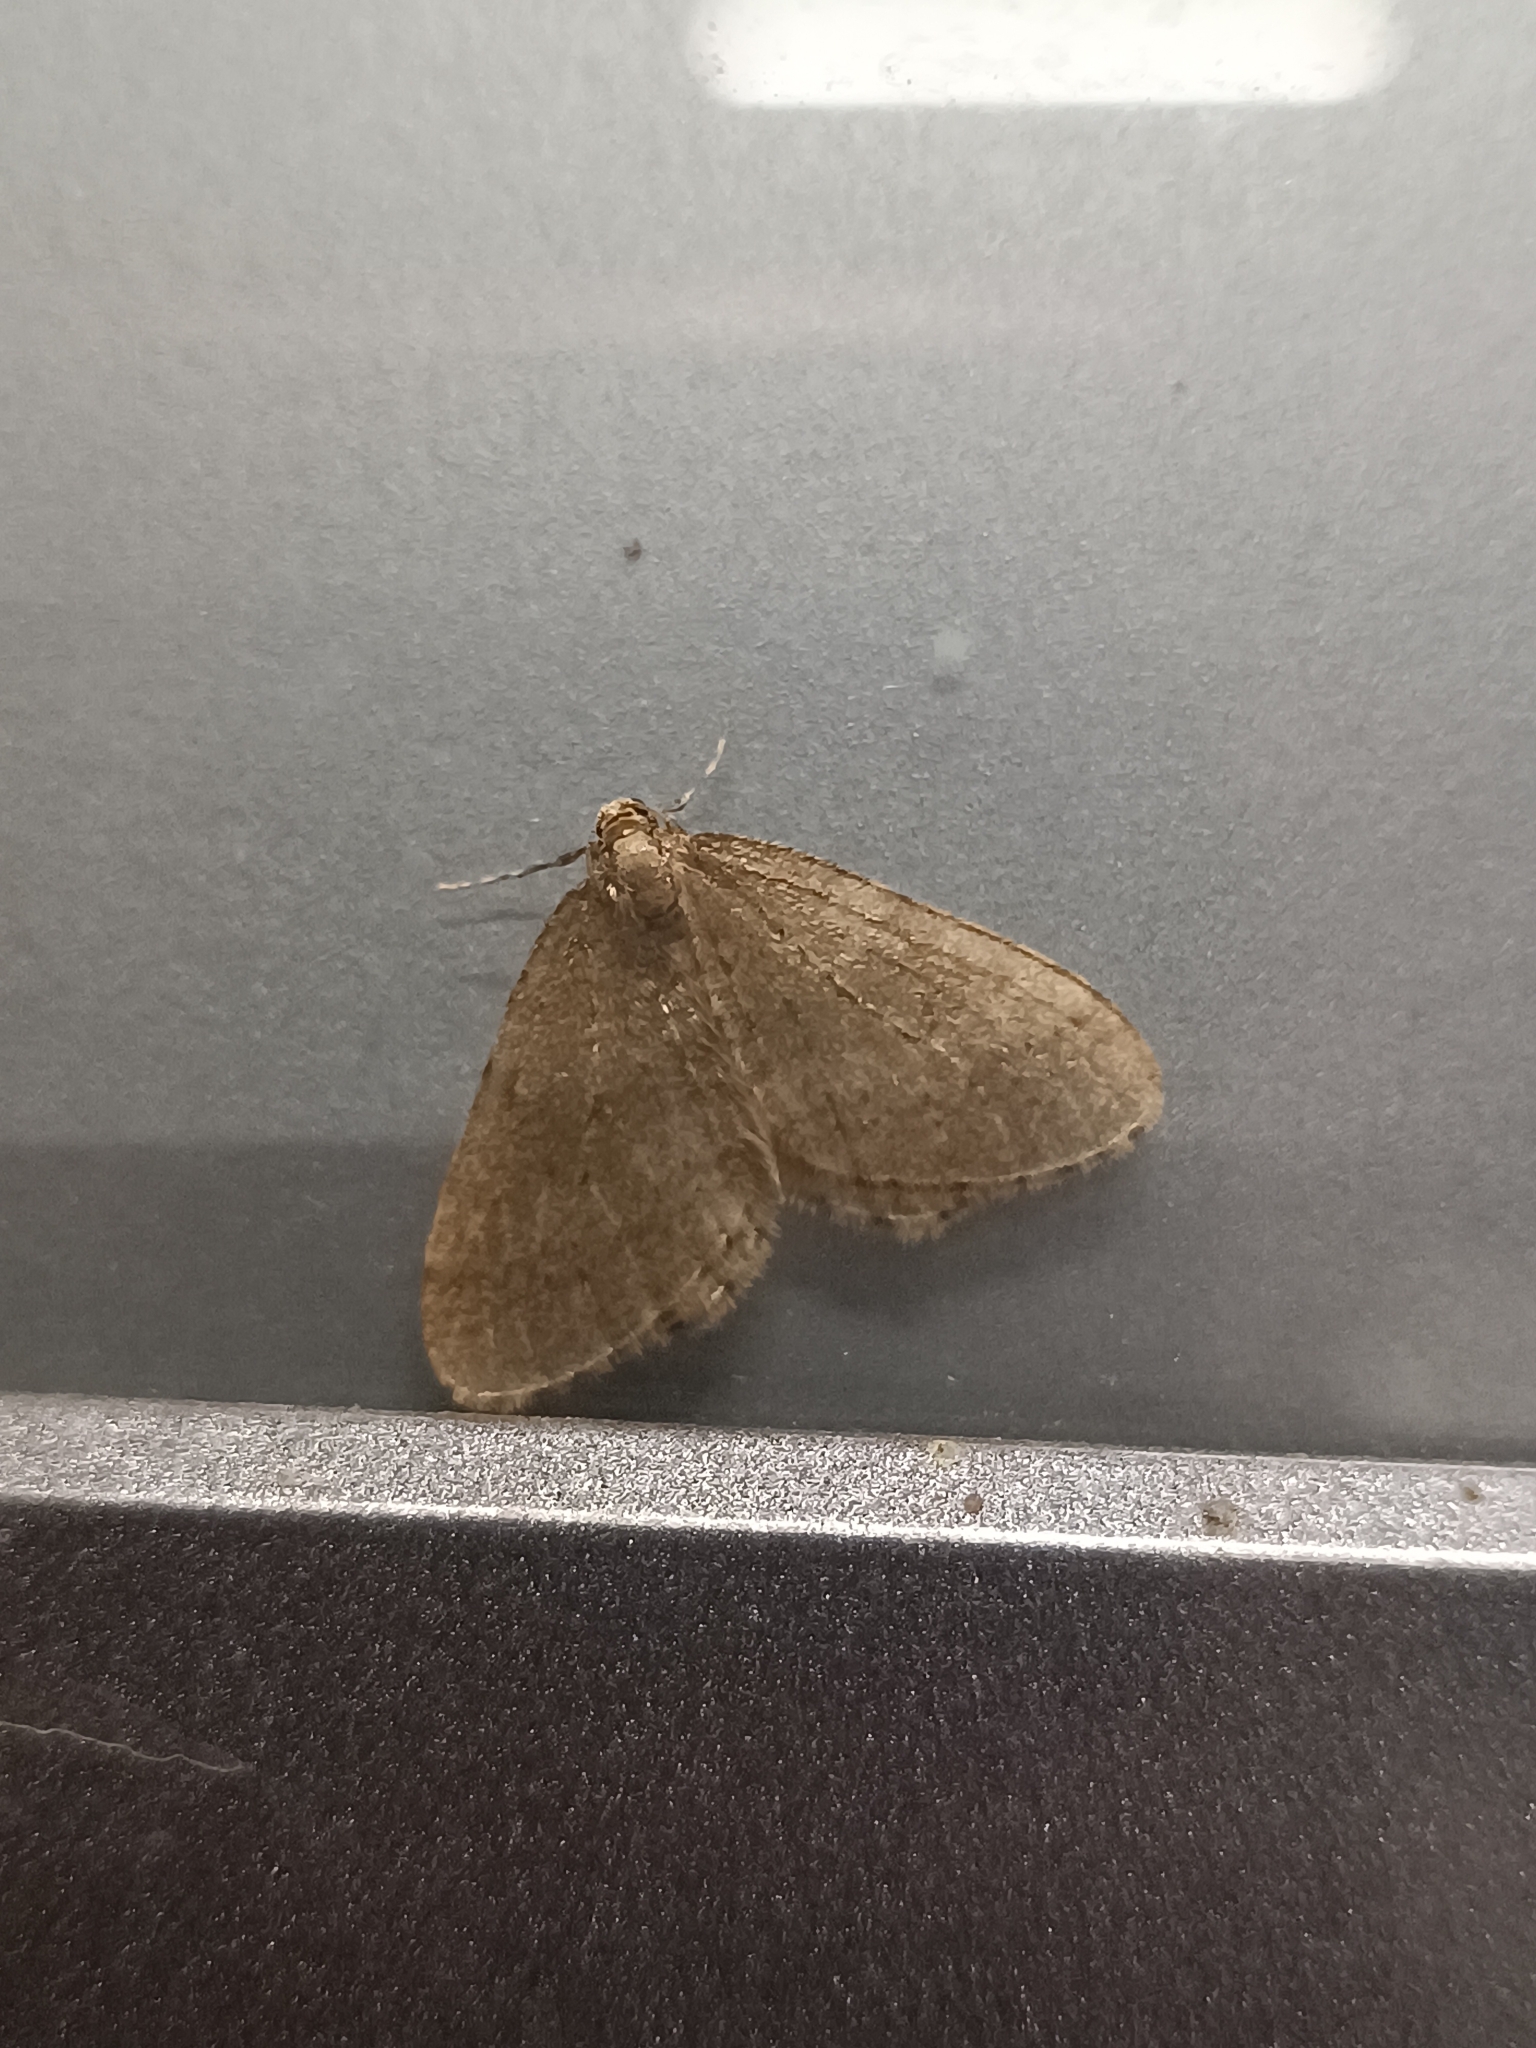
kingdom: Animalia
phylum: Arthropoda
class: Insecta
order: Lepidoptera
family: Geometridae
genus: Operophtera
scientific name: Operophtera brumata
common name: Winter moth
